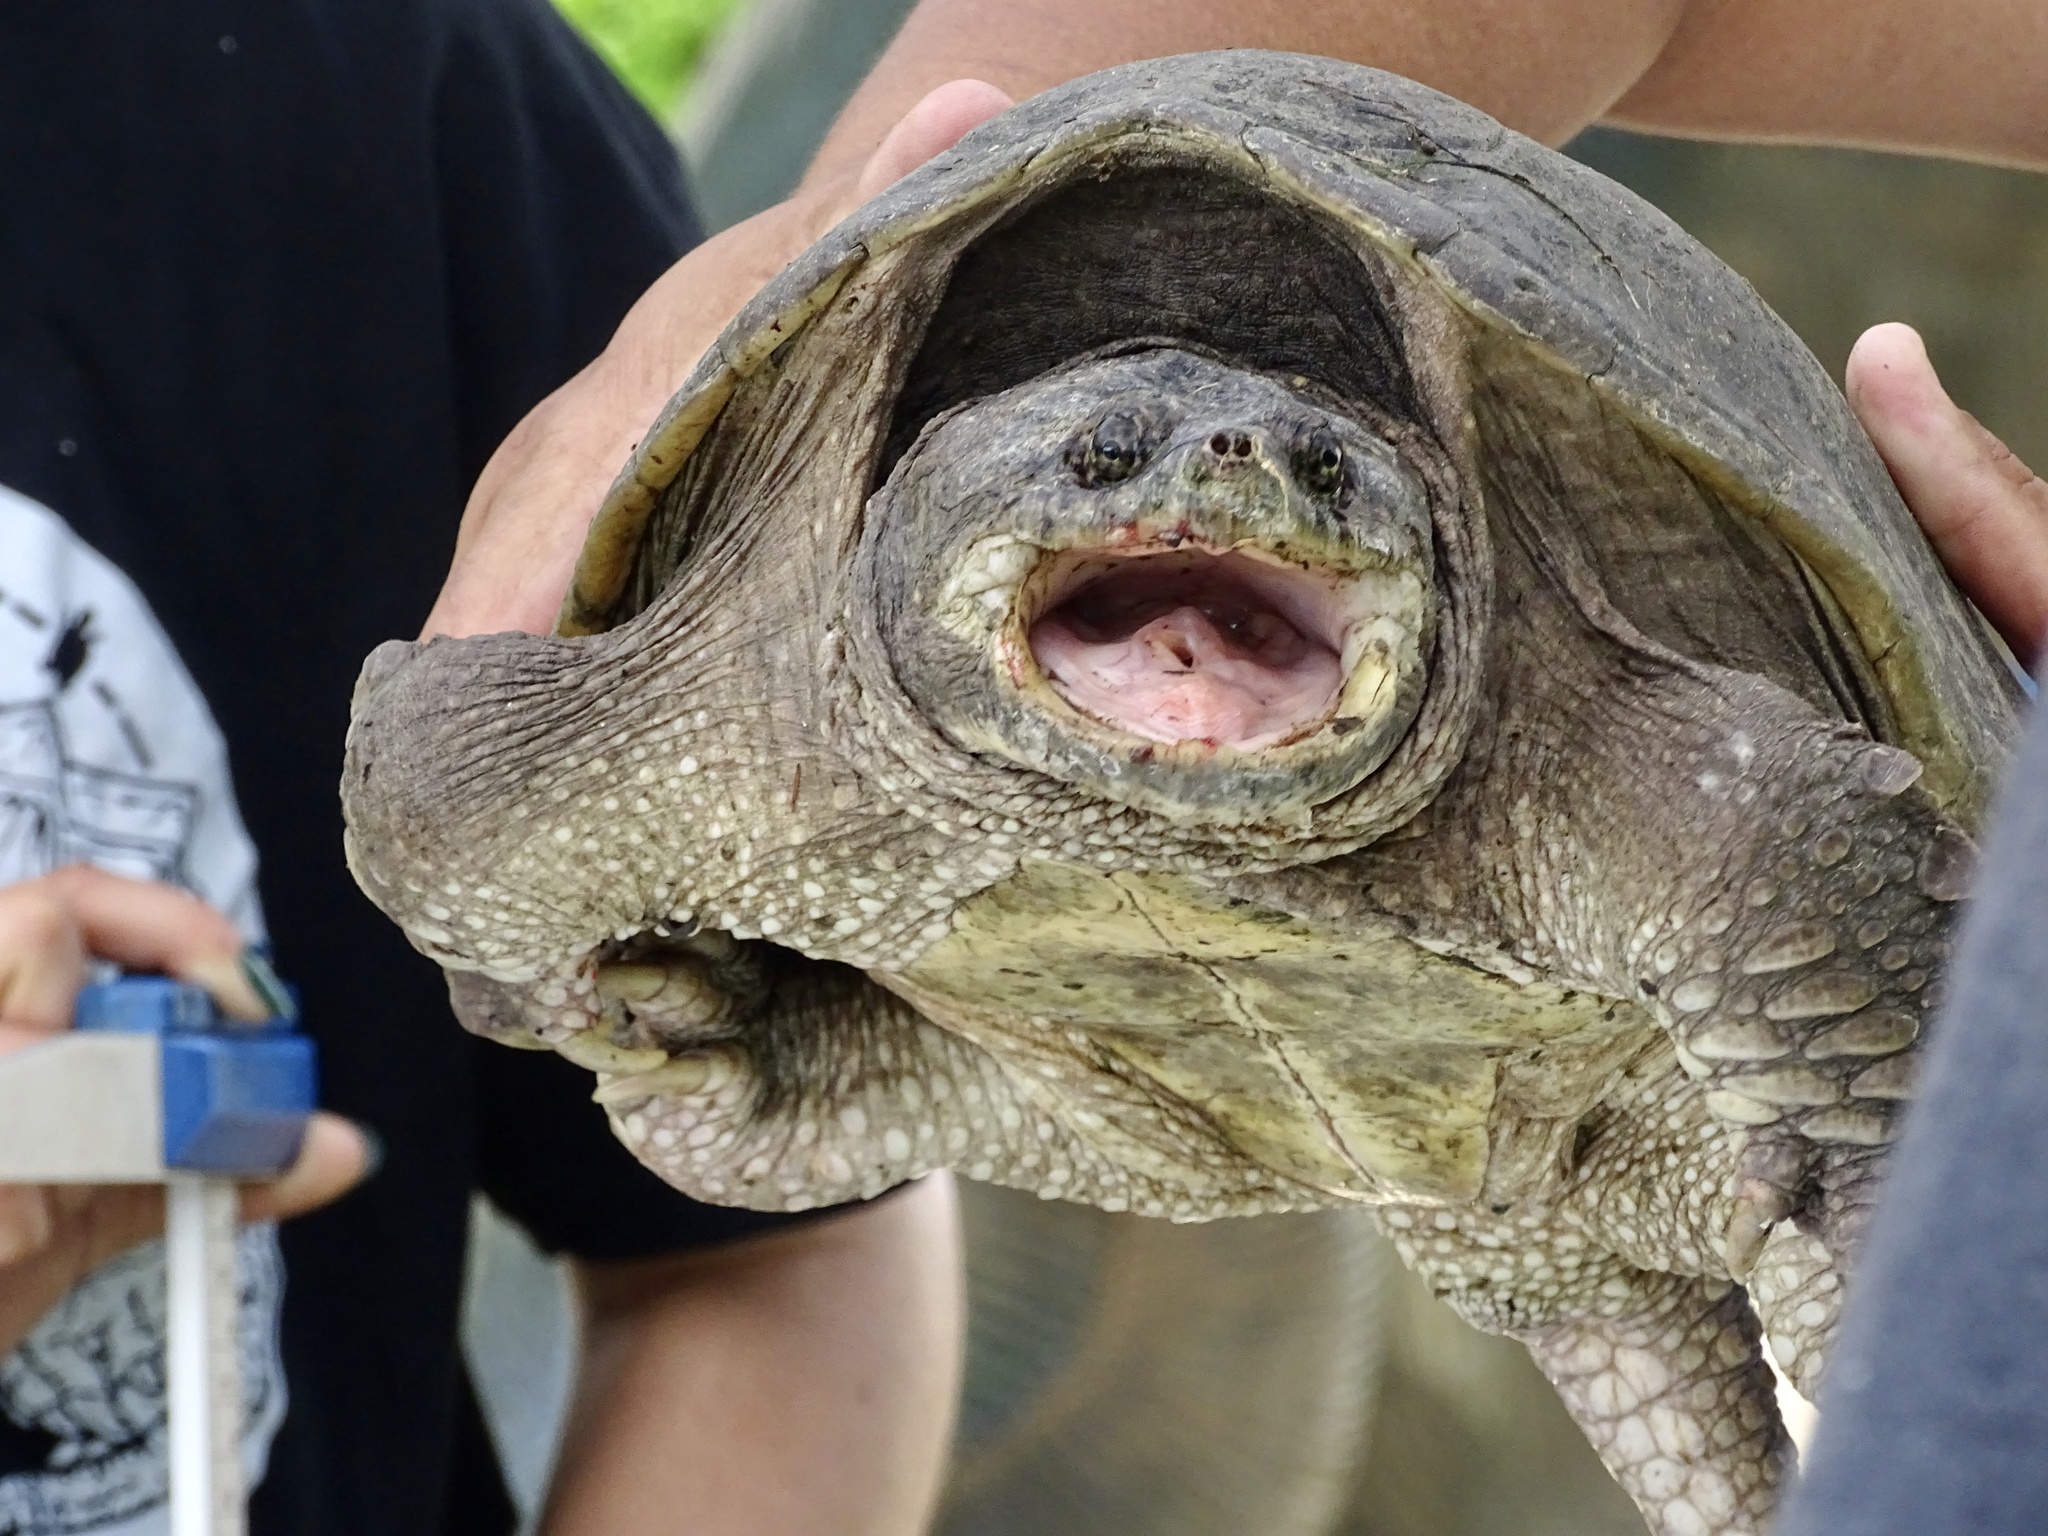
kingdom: Animalia
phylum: Chordata
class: Testudines
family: Chelydridae
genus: Chelydra
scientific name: Chelydra serpentina
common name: Common snapping turtle
